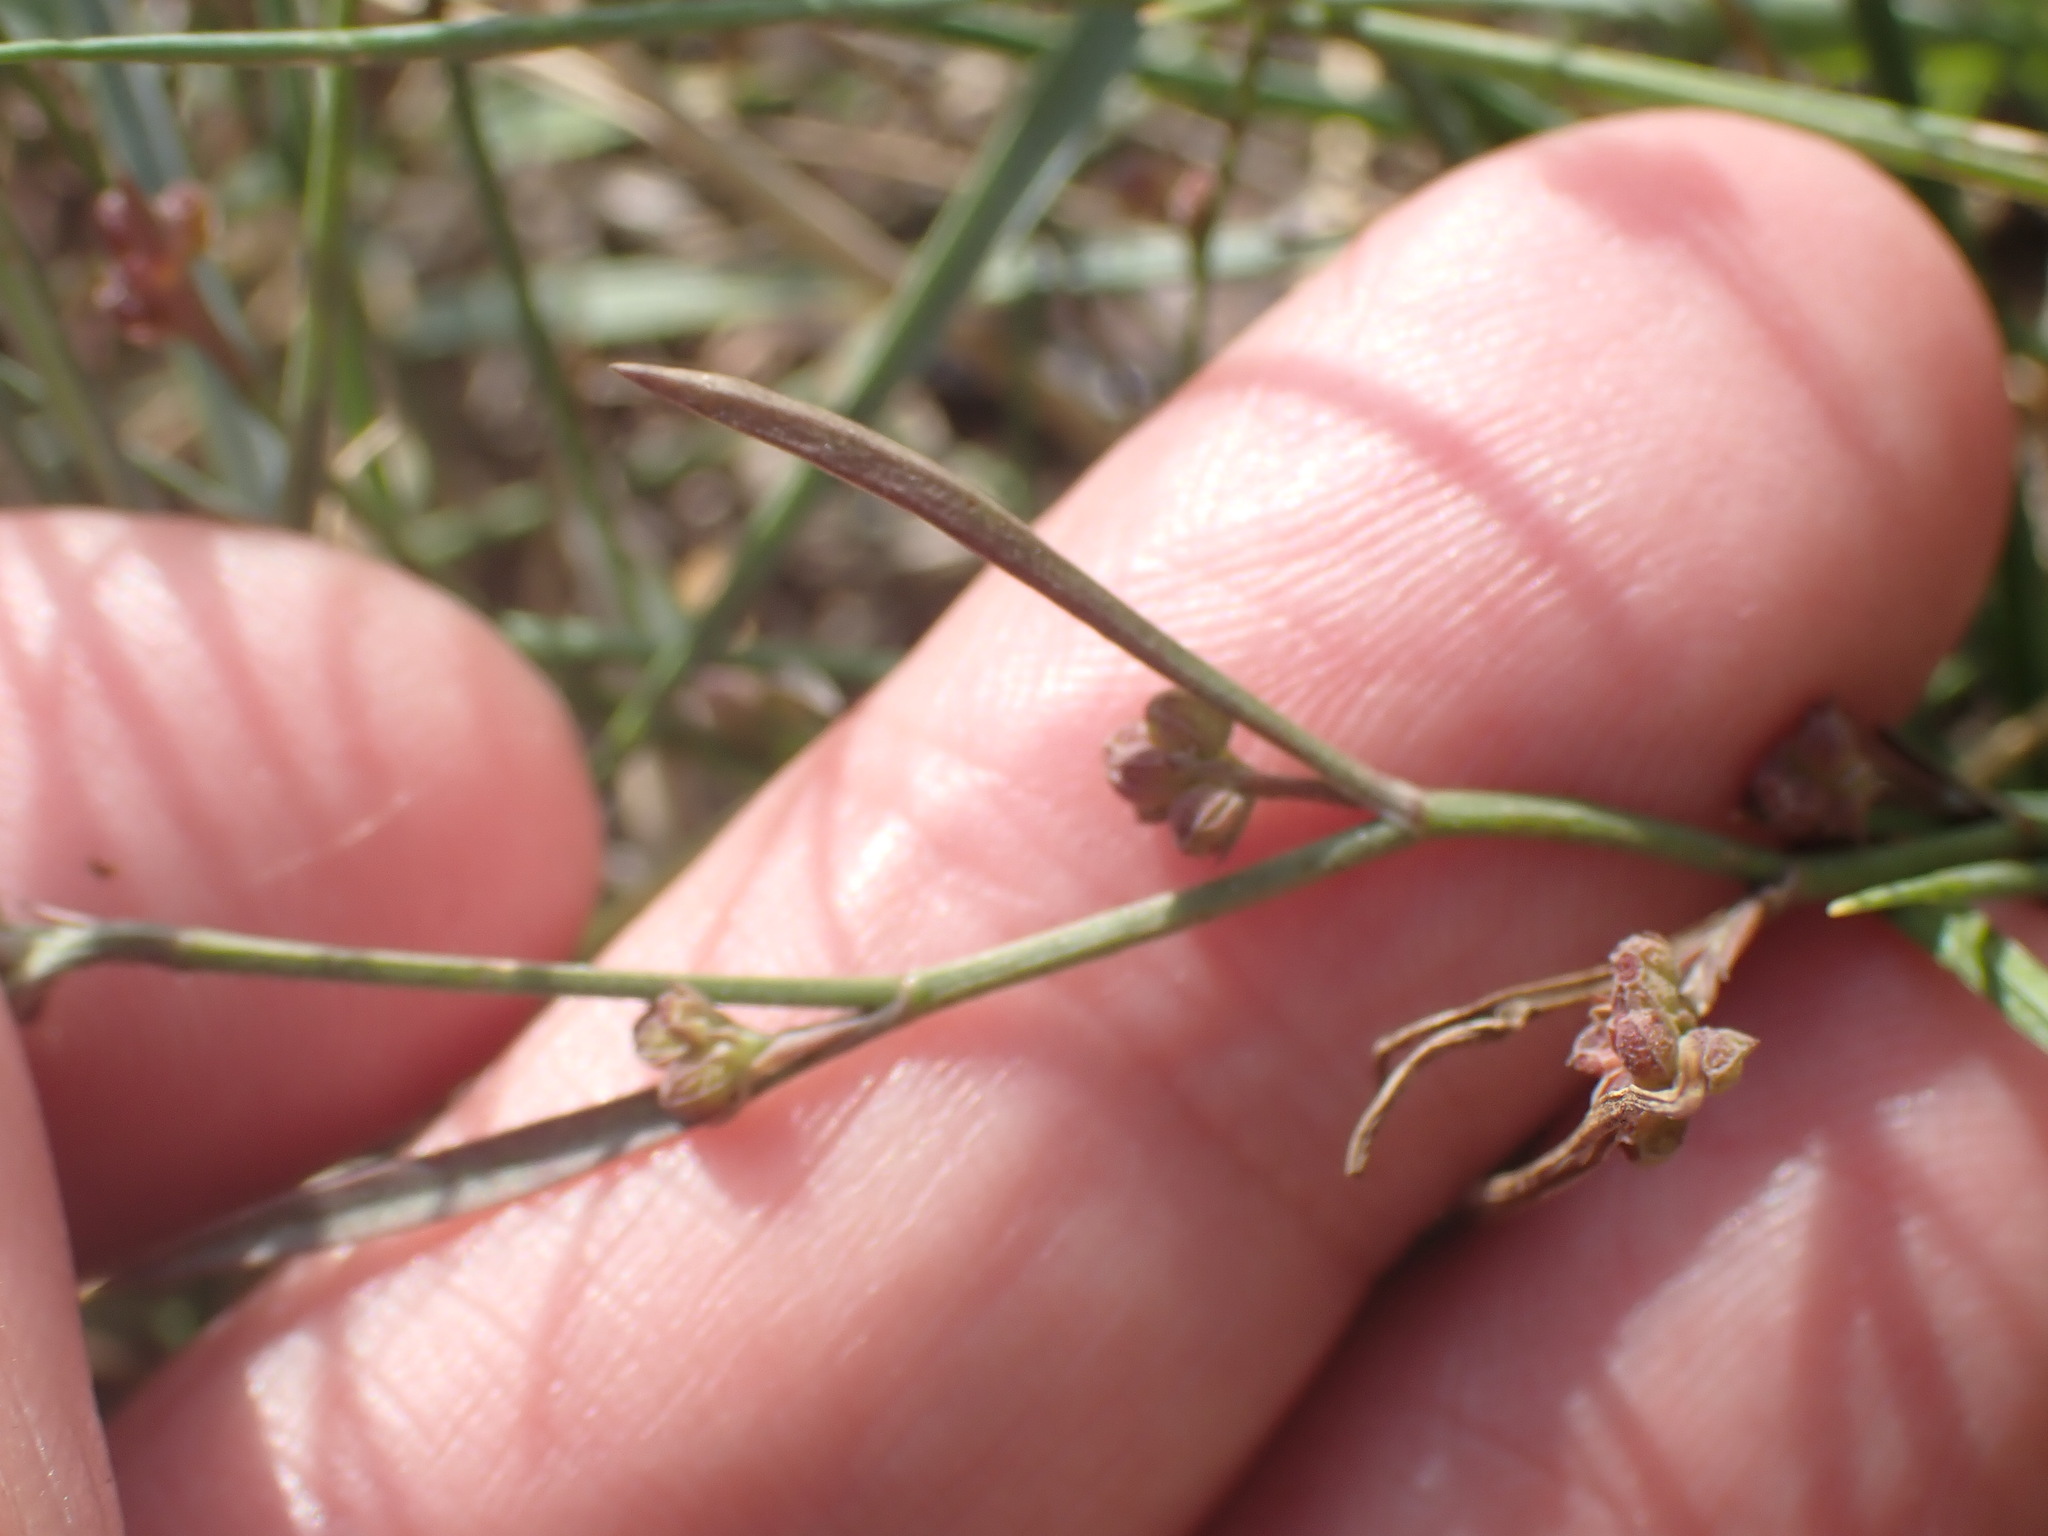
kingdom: Plantae
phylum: Tracheophyta
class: Magnoliopsida
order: Apiales
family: Apiaceae
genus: Bupleurum
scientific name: Bupleurum tenuissimum
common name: Slender hare's-ear
